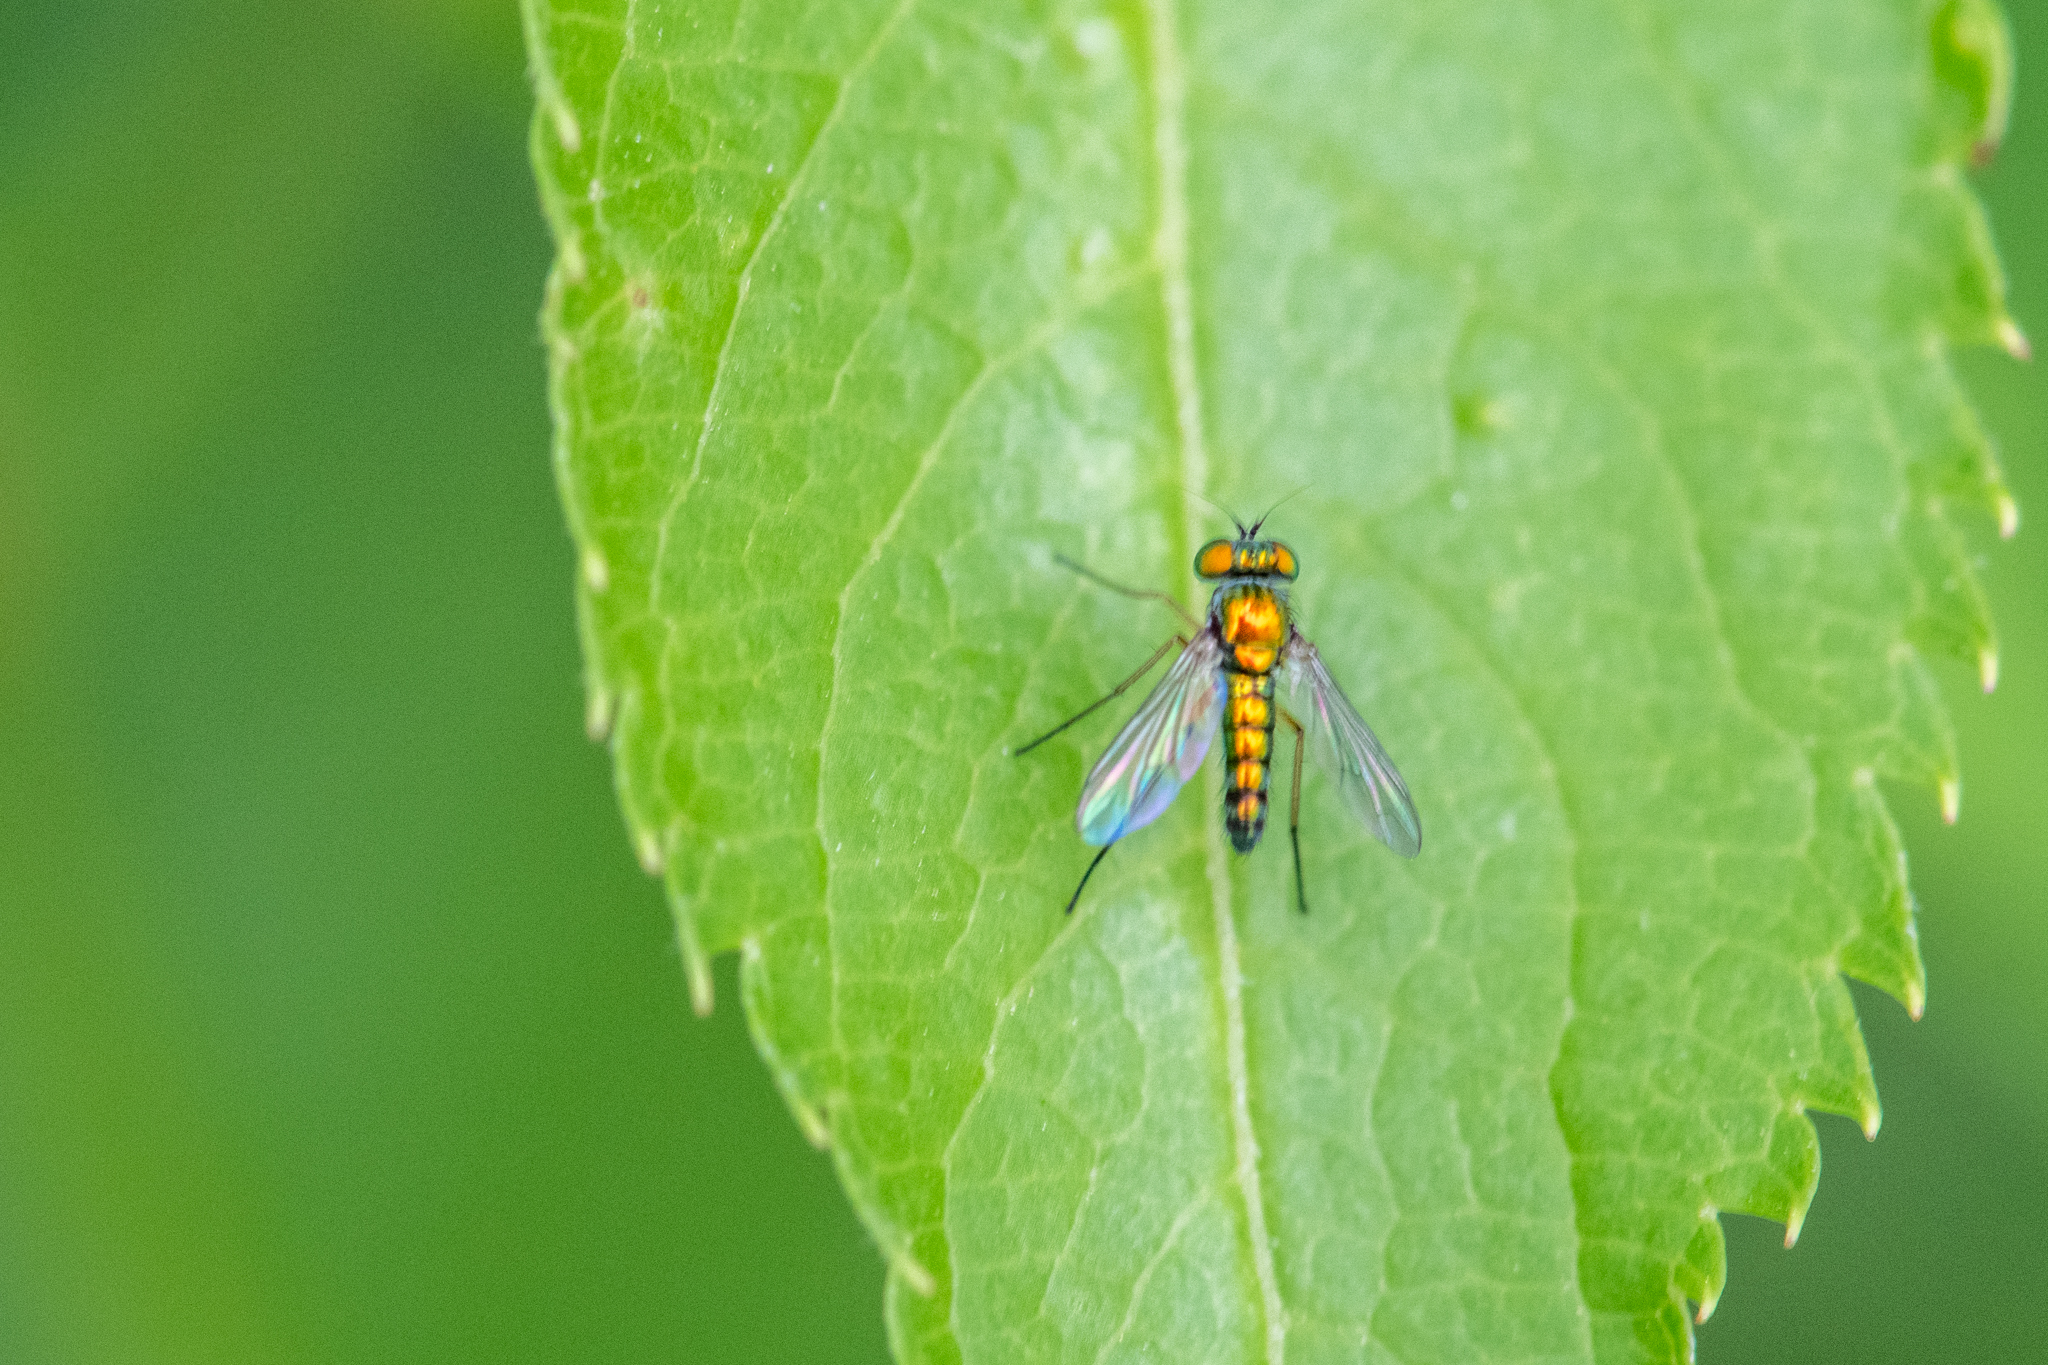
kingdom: Animalia
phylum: Arthropoda
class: Insecta
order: Diptera
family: Dolichopodidae
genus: Condylostylus
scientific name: Condylostylus flavipes
